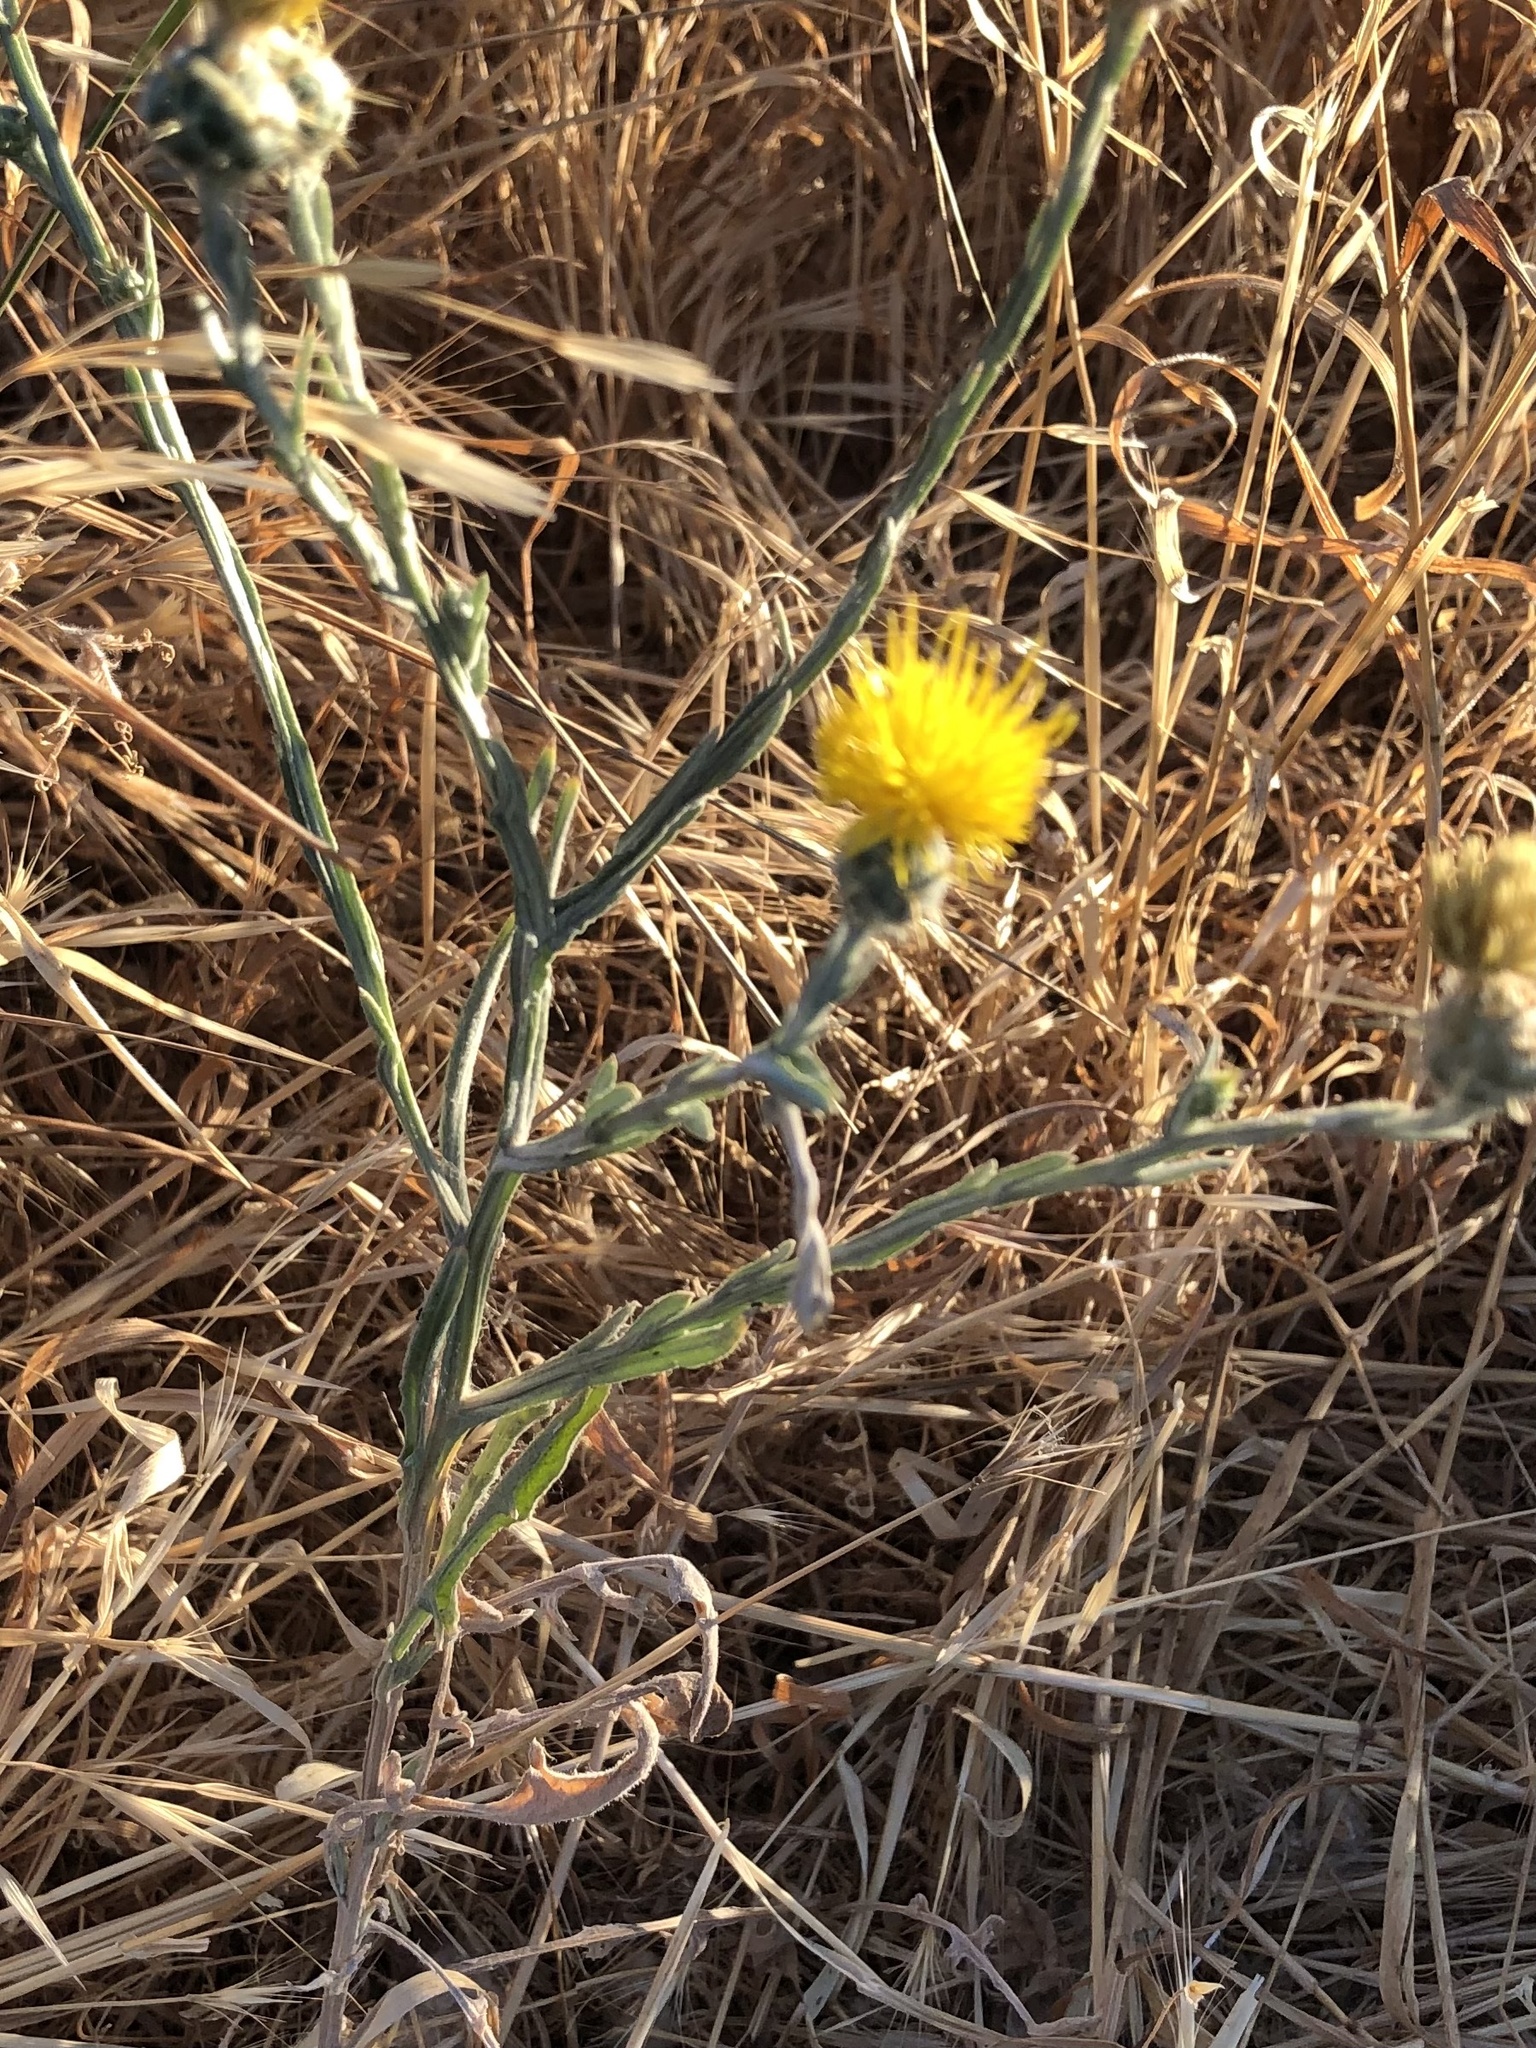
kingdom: Plantae
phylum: Tracheophyta
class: Magnoliopsida
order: Asterales
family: Asteraceae
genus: Centaurea
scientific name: Centaurea solstitialis
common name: Yellow star-thistle
